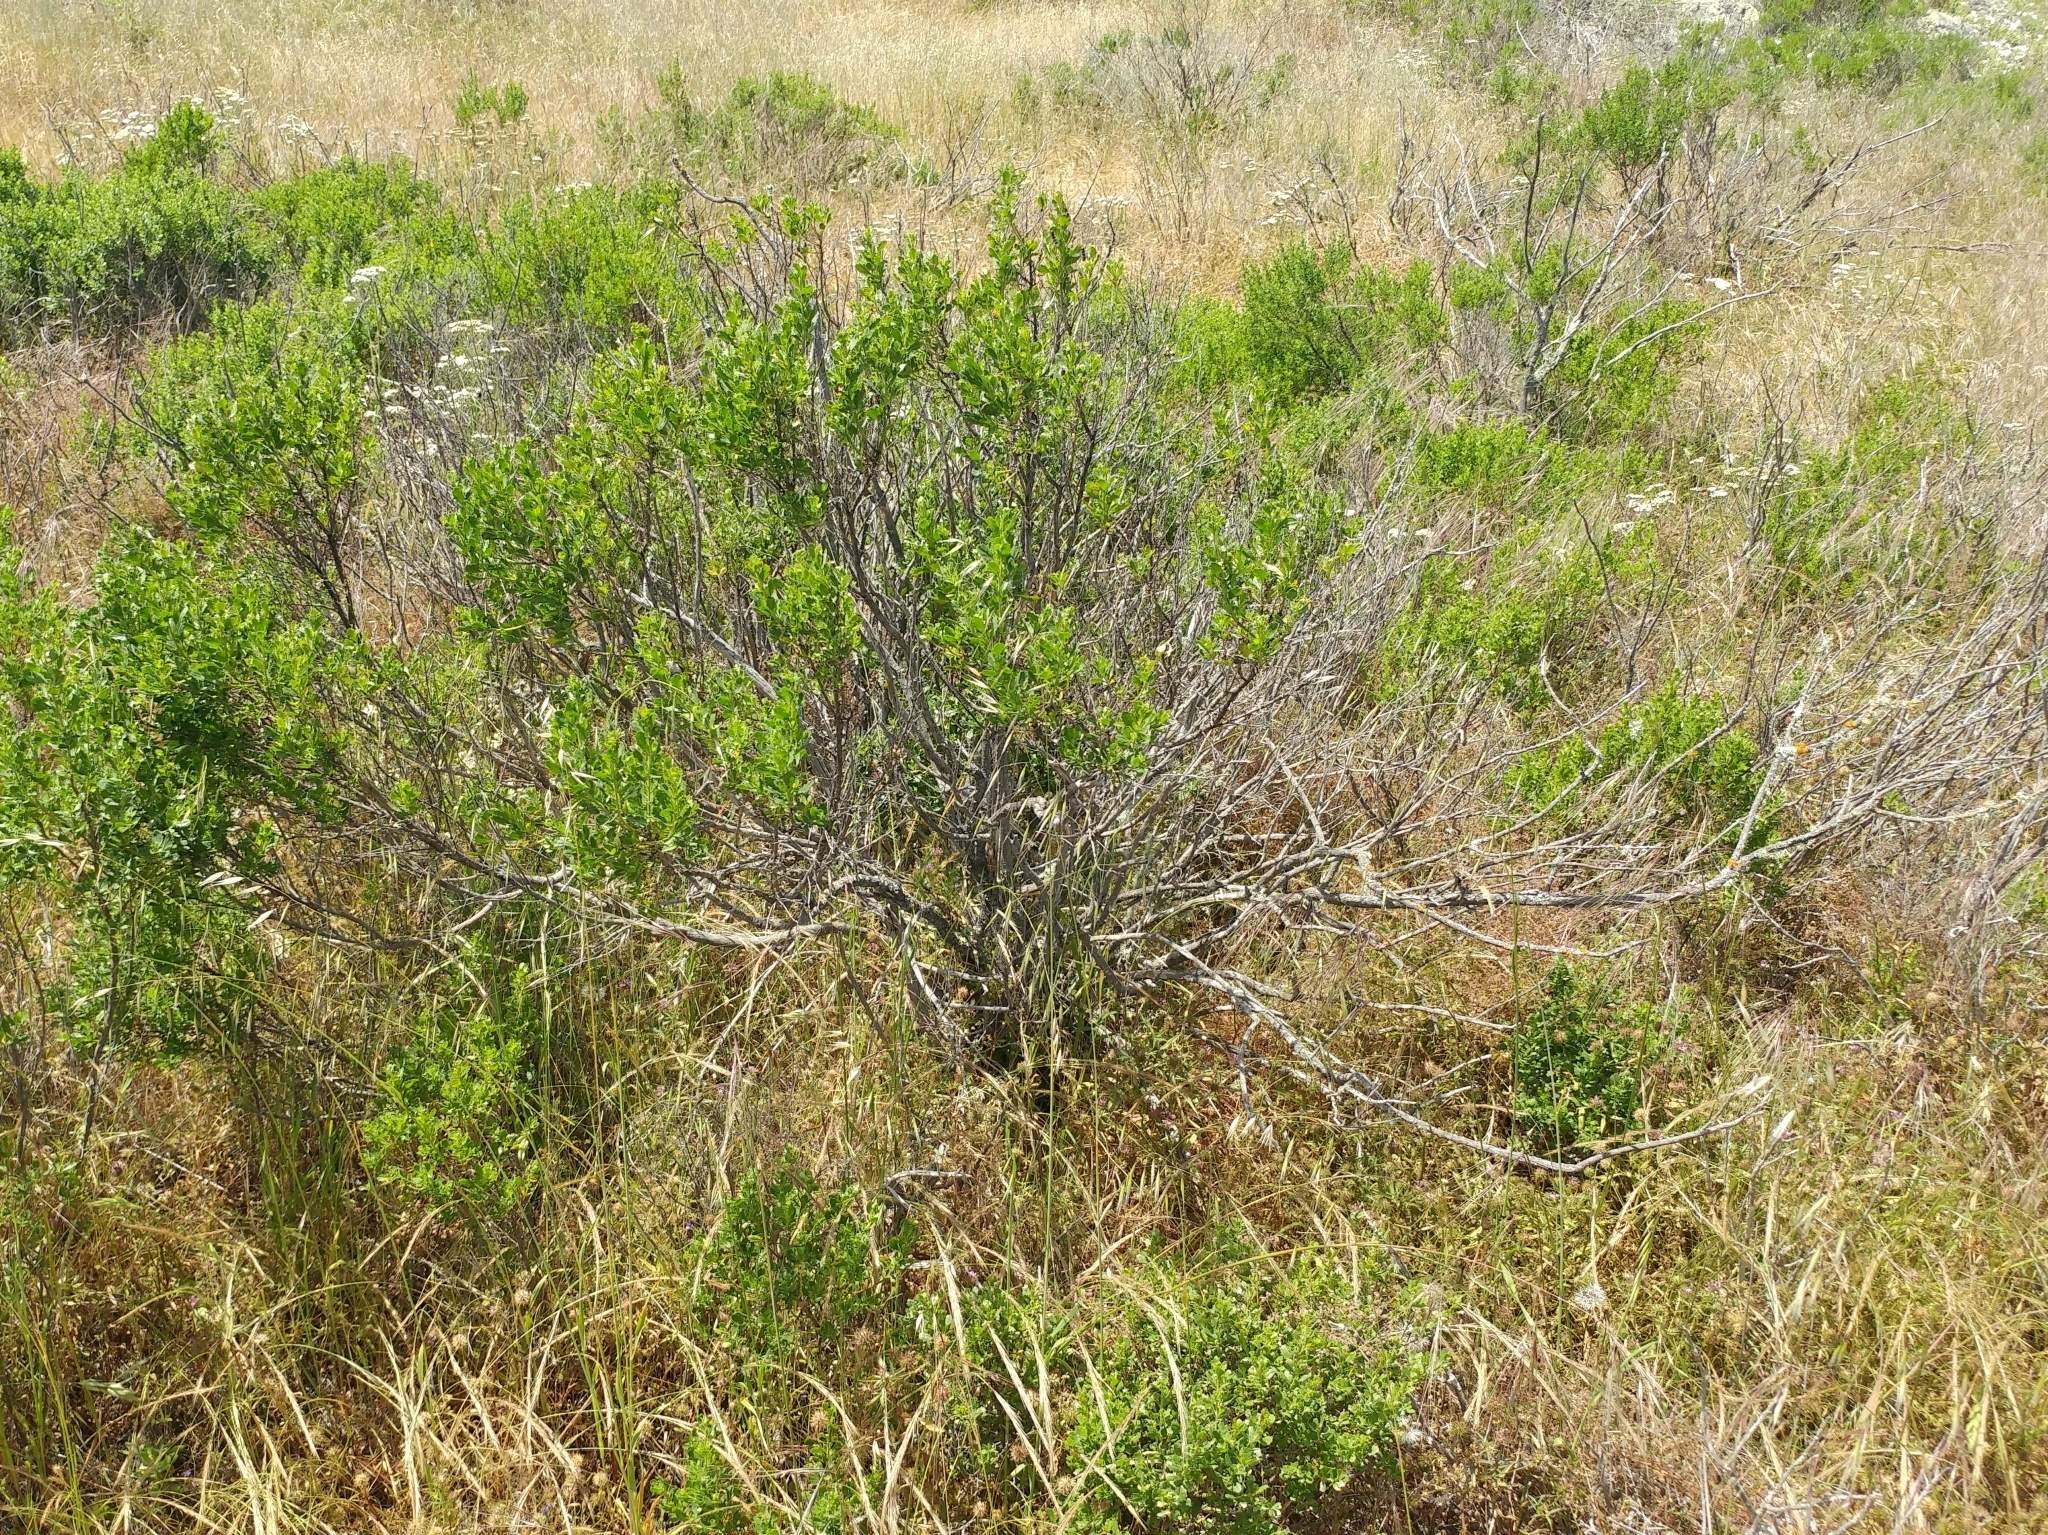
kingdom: Plantae
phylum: Tracheophyta
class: Magnoliopsida
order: Asterales
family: Asteraceae
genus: Baccharis
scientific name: Baccharis pilularis
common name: Coyotebrush
